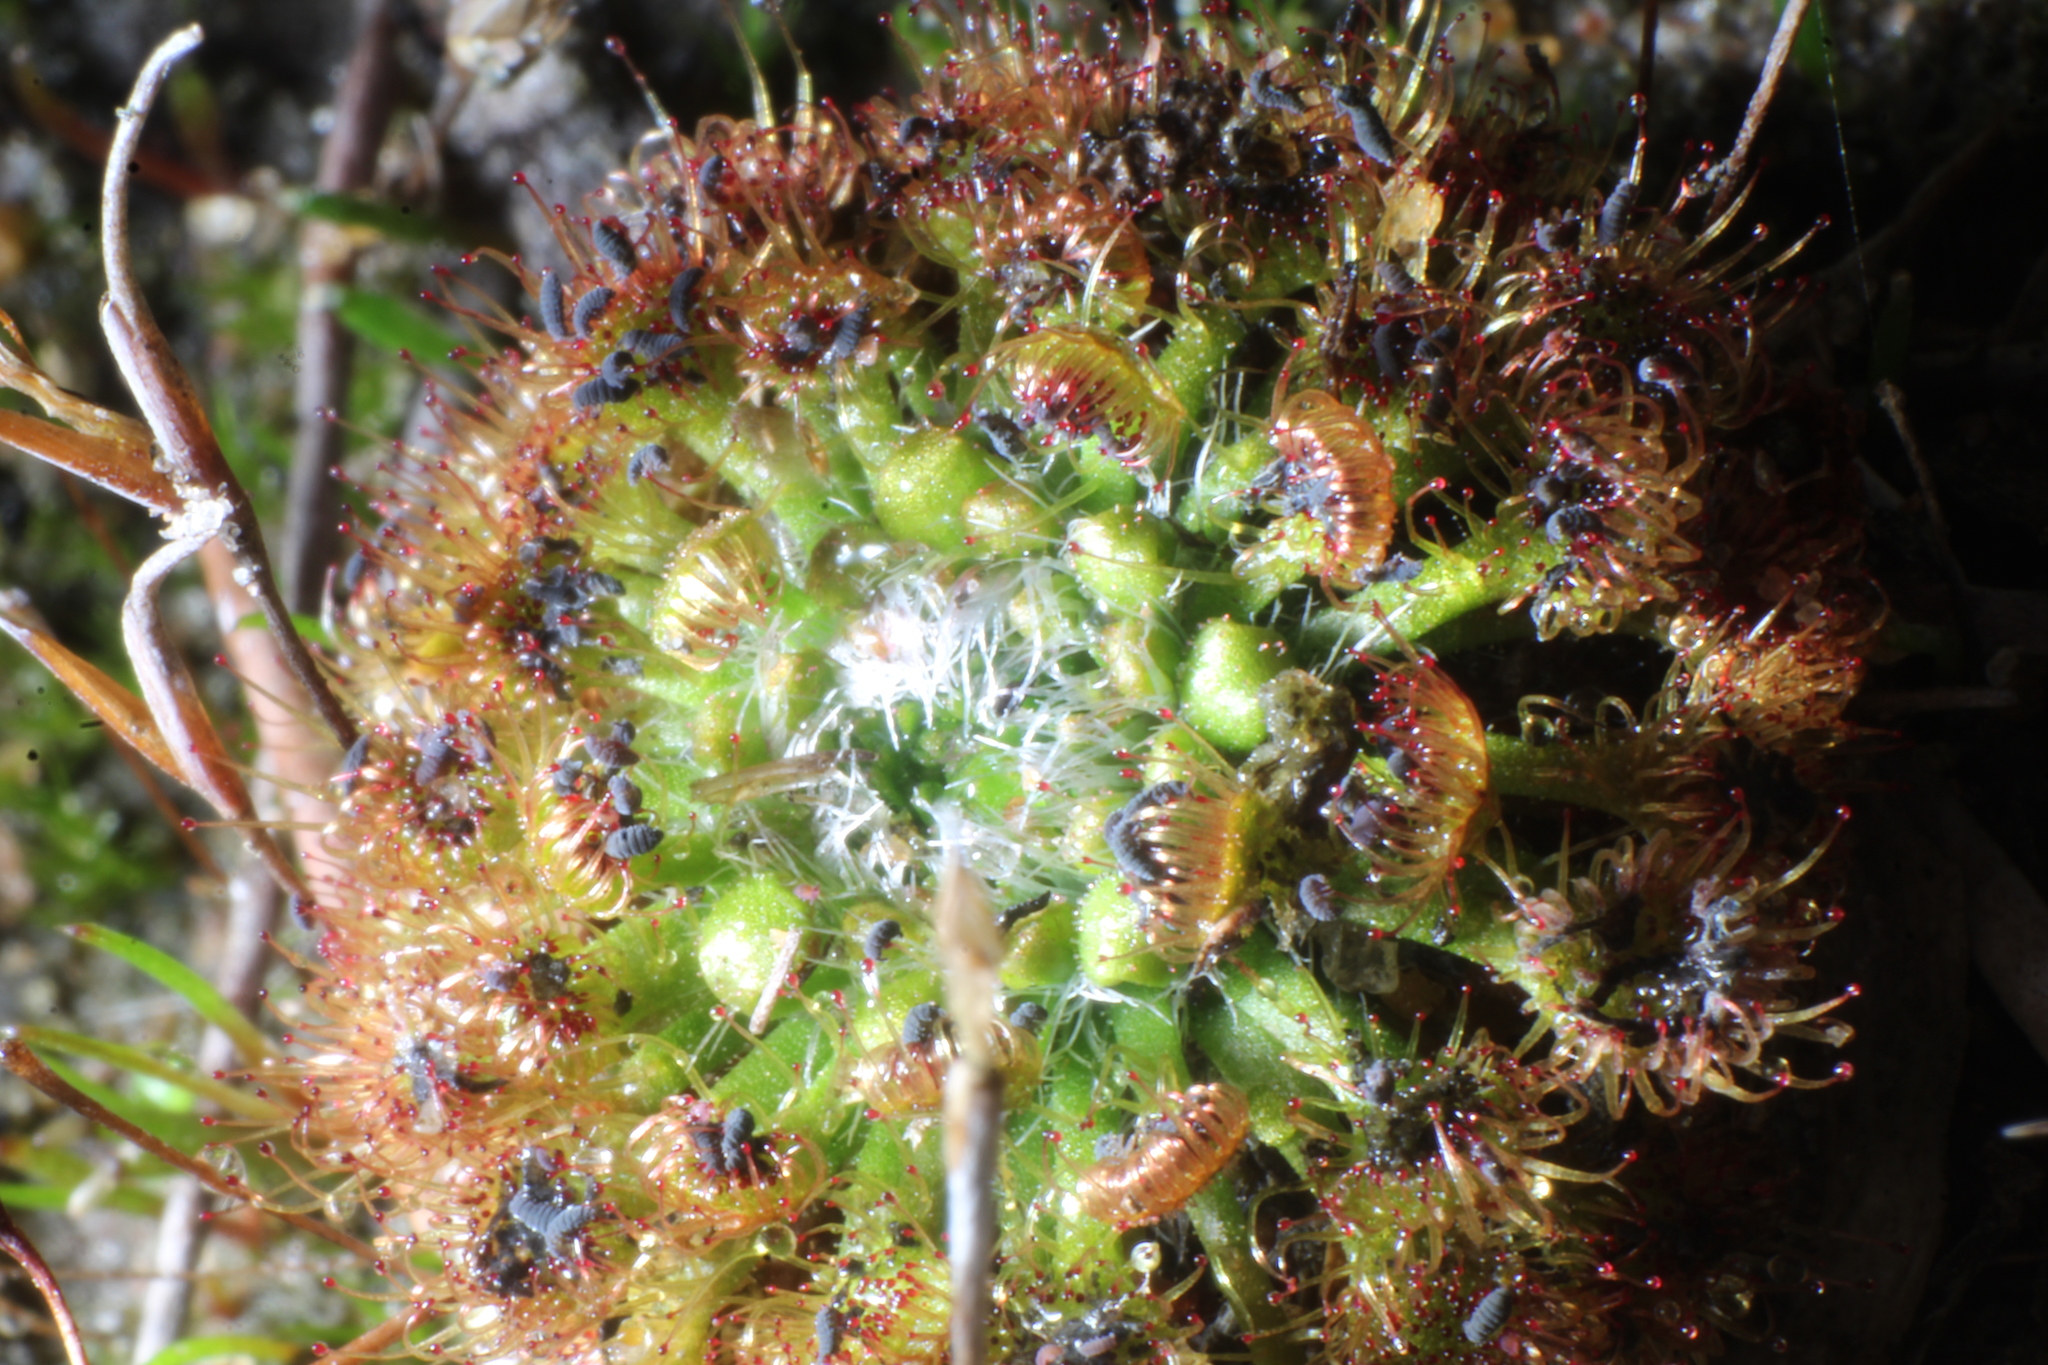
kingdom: Plantae
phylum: Tracheophyta
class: Magnoliopsida
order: Caryophyllales
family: Droseraceae
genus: Drosera
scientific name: Drosera nitidula
